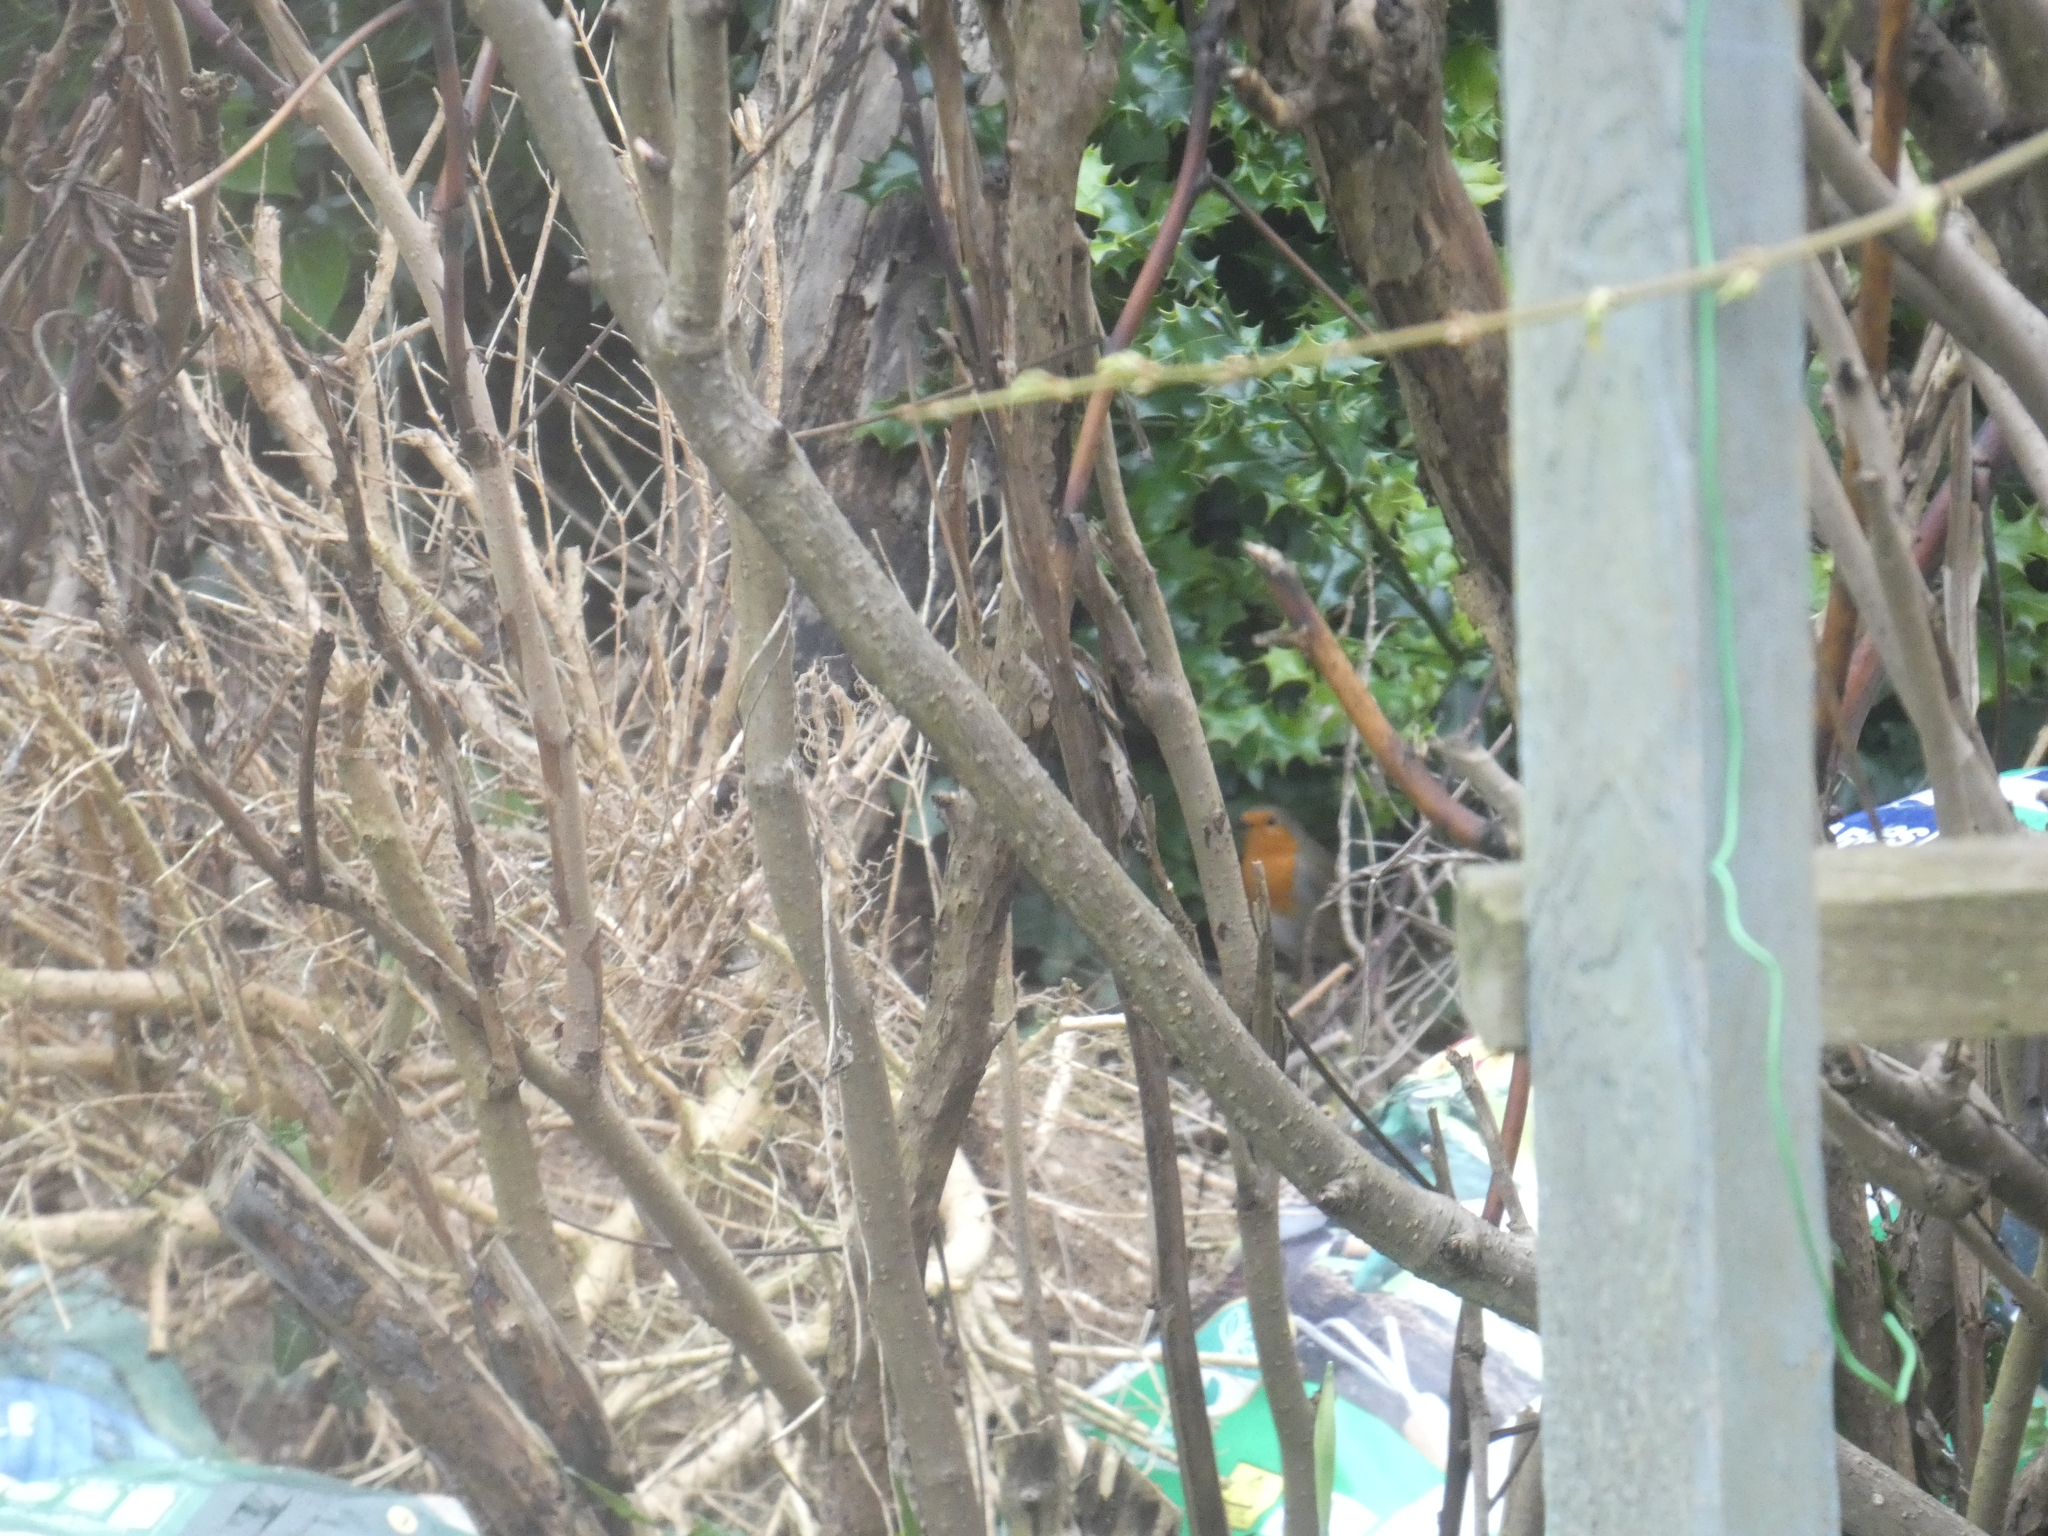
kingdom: Animalia
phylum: Chordata
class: Aves
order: Passeriformes
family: Muscicapidae
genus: Erithacus
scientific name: Erithacus rubecula
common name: European robin
